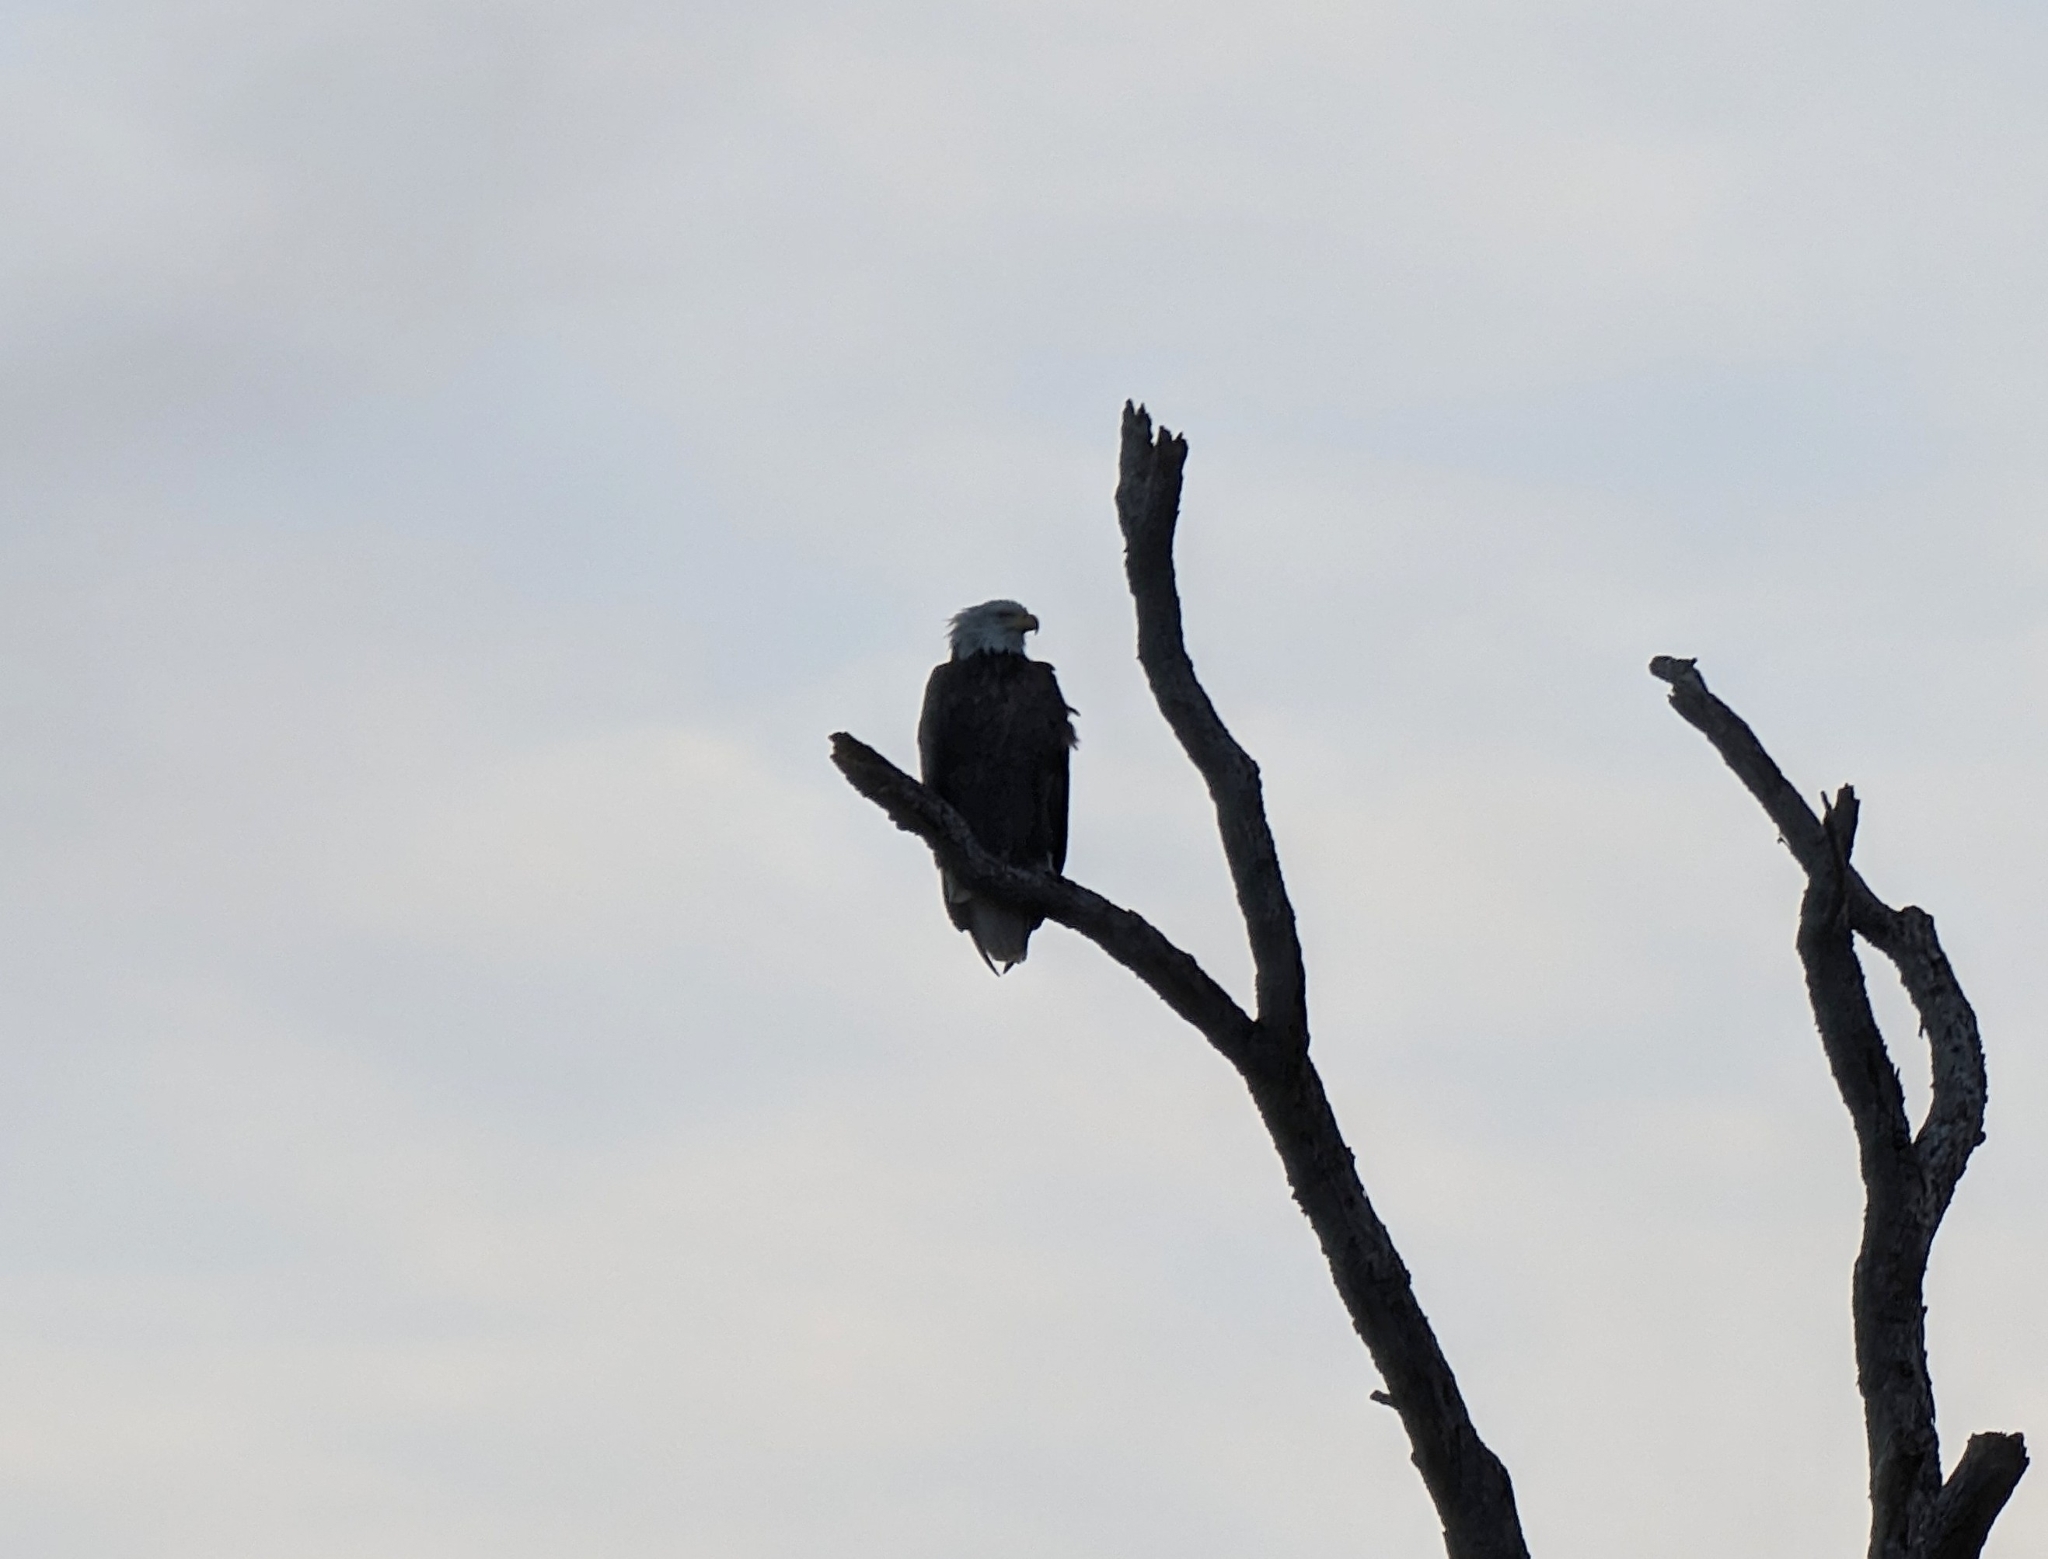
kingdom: Animalia
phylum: Chordata
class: Aves
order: Accipitriformes
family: Accipitridae
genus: Haliaeetus
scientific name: Haliaeetus leucocephalus
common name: Bald eagle
